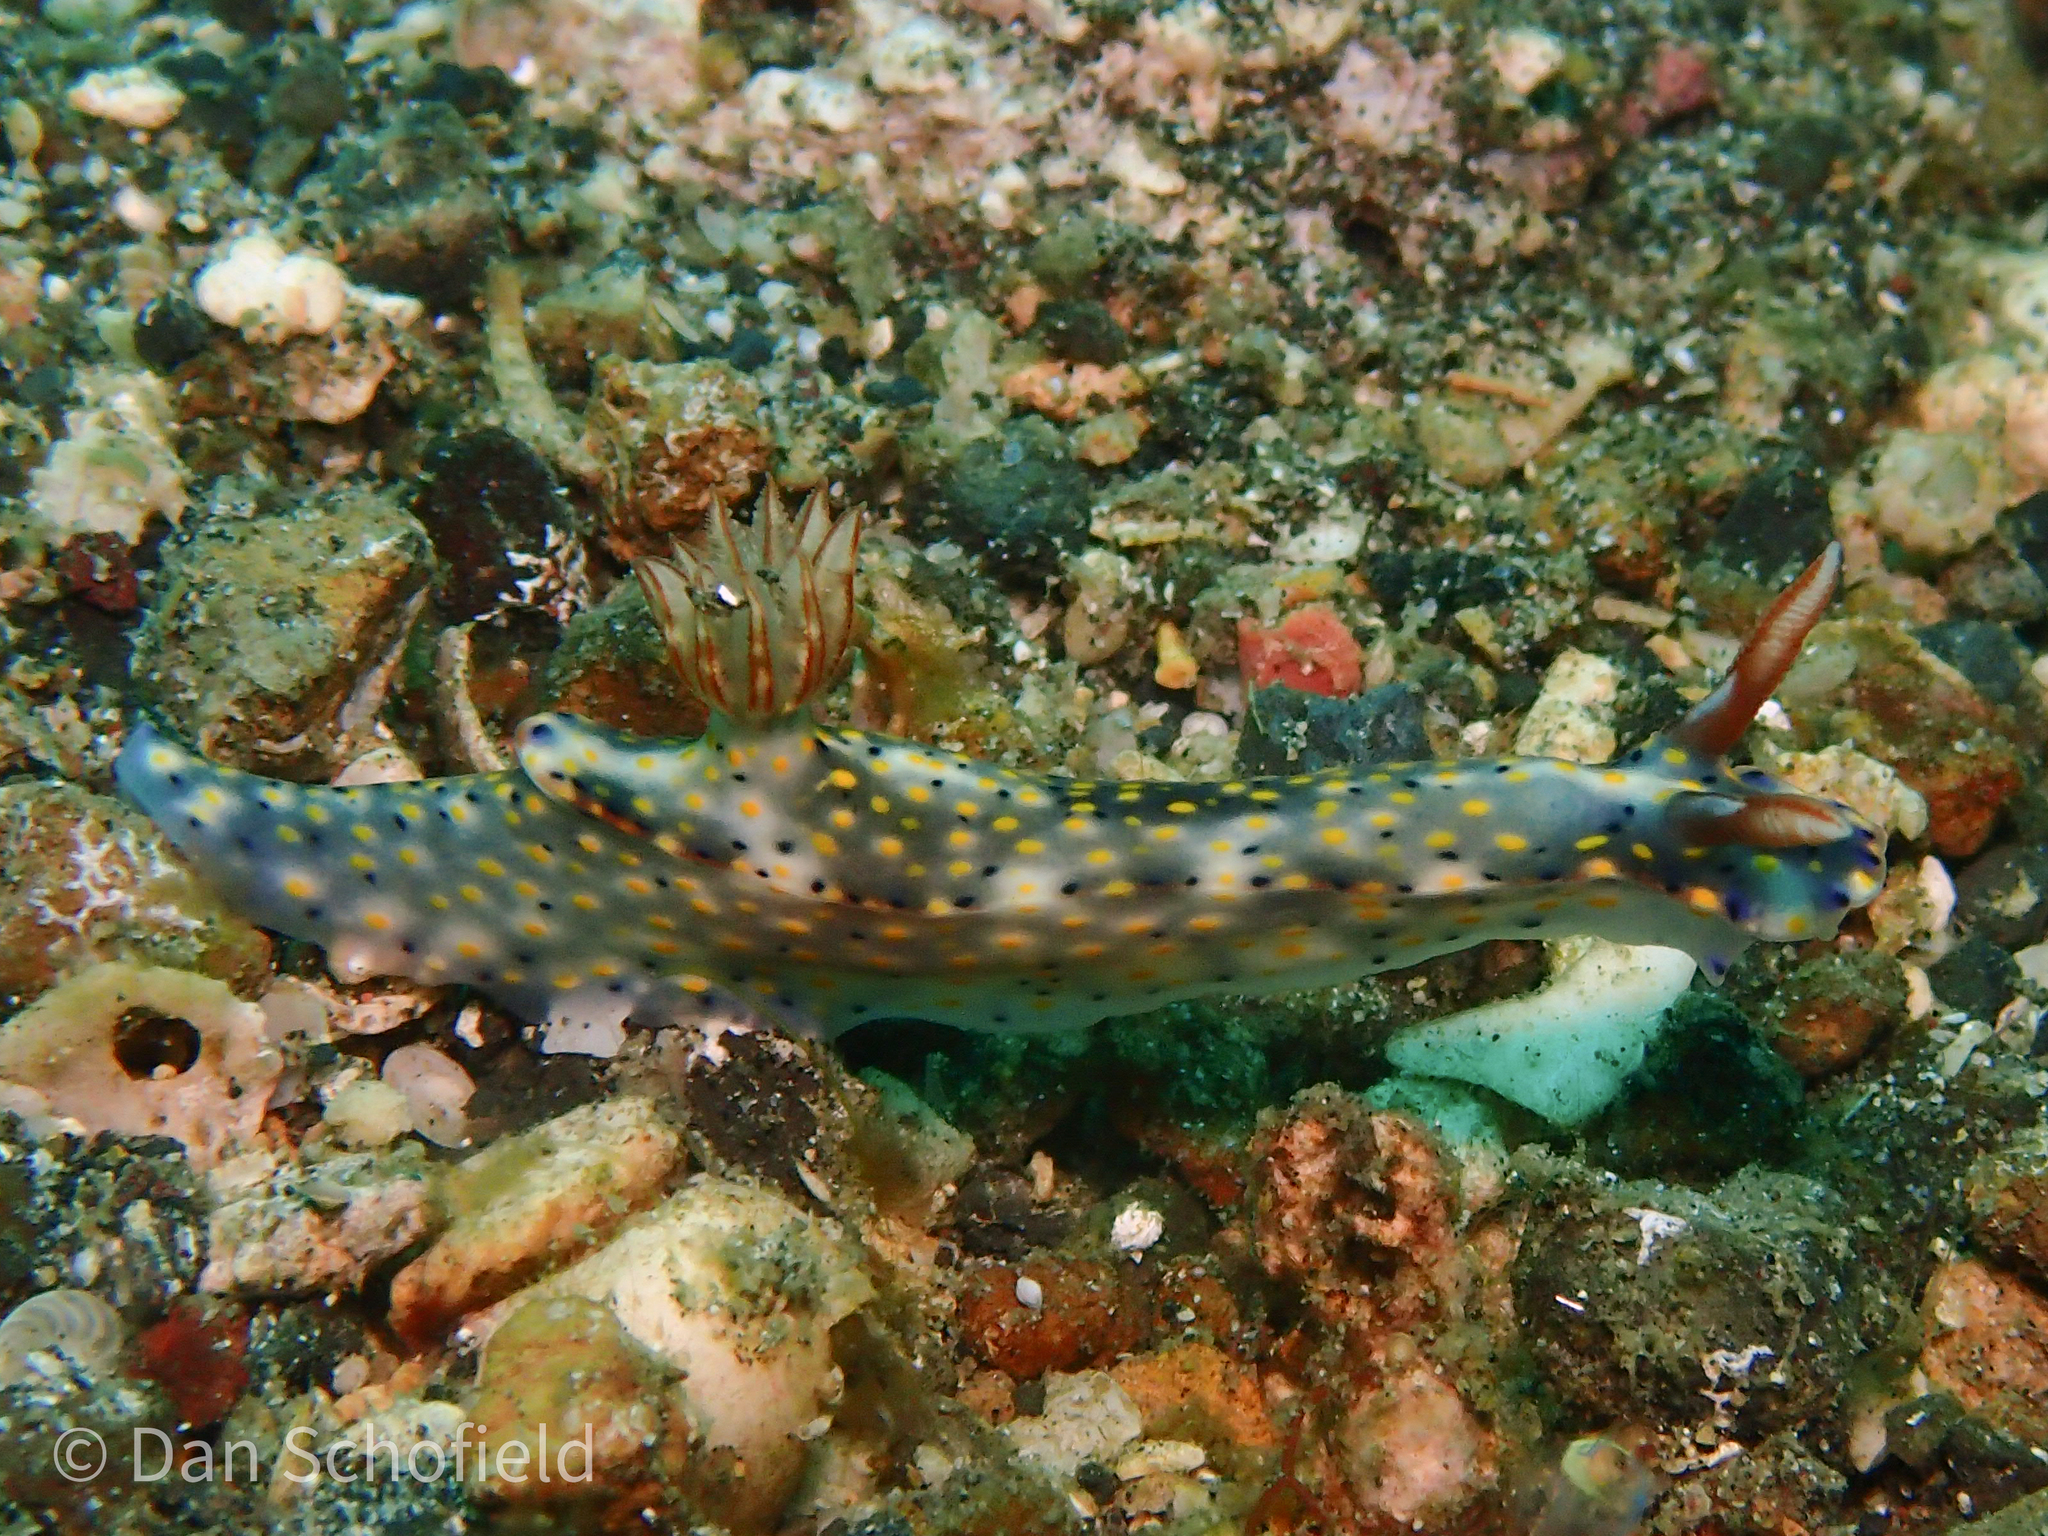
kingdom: Animalia
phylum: Mollusca
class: Gastropoda
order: Nudibranchia
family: Chromodorididae
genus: Hypselodoris
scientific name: Hypselodoris roo
